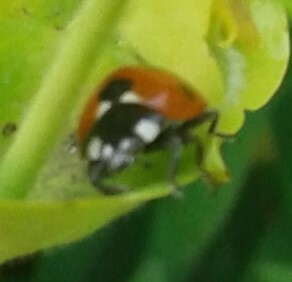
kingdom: Animalia
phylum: Arthropoda
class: Insecta
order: Coleoptera
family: Coccinellidae
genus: Coccinella
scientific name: Coccinella septempunctata
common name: Sevenspotted lady beetle
